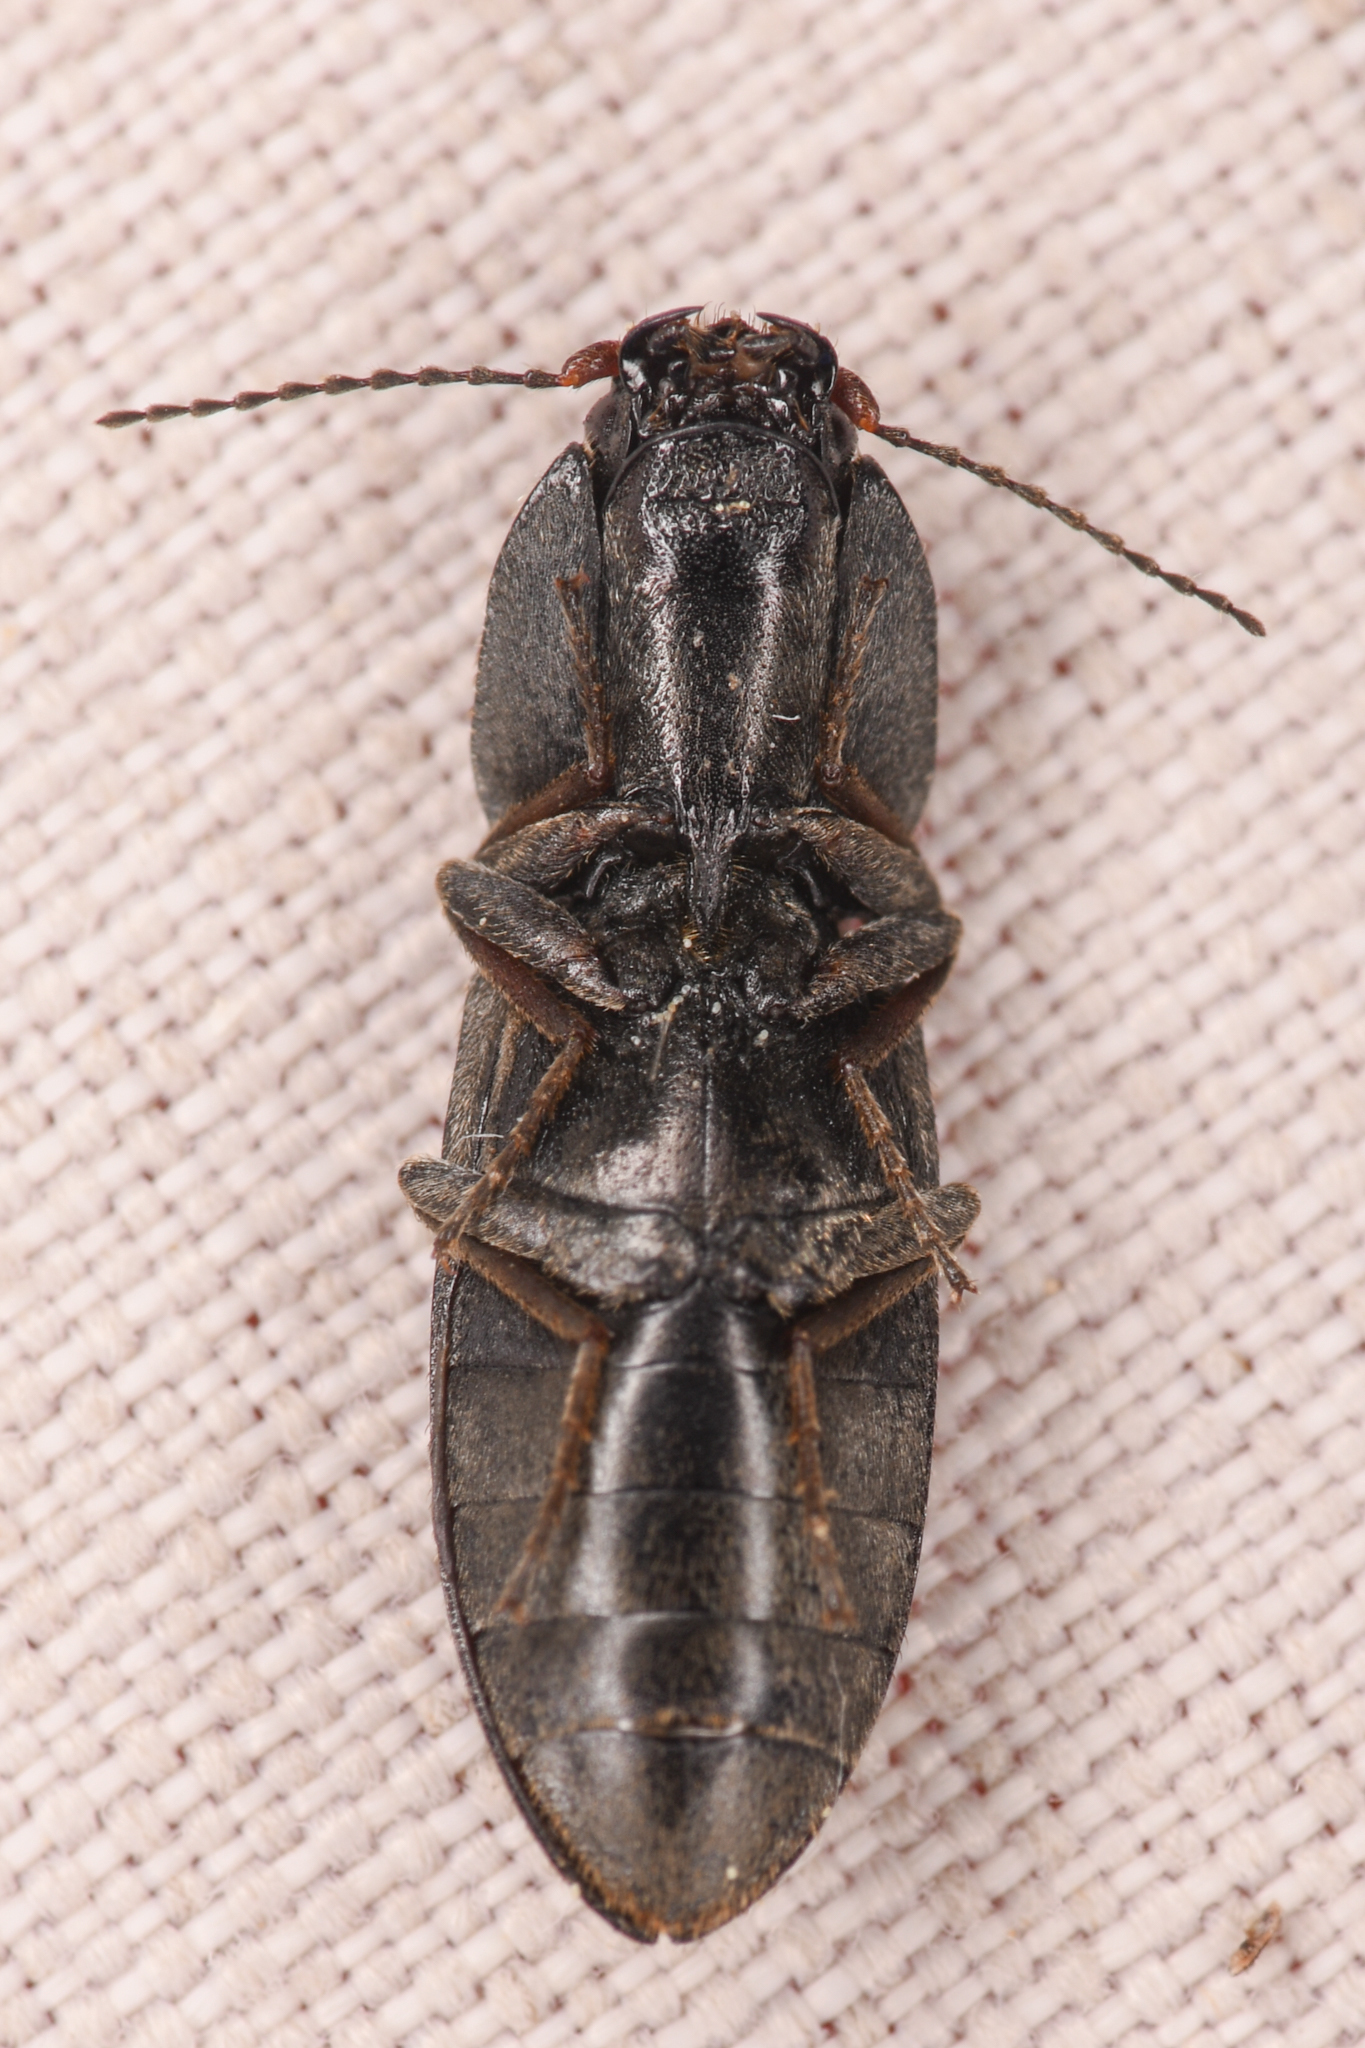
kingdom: Animalia
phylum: Arthropoda
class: Insecta
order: Coleoptera
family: Elateridae
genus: Ligmargus
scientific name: Ligmargus funebris
